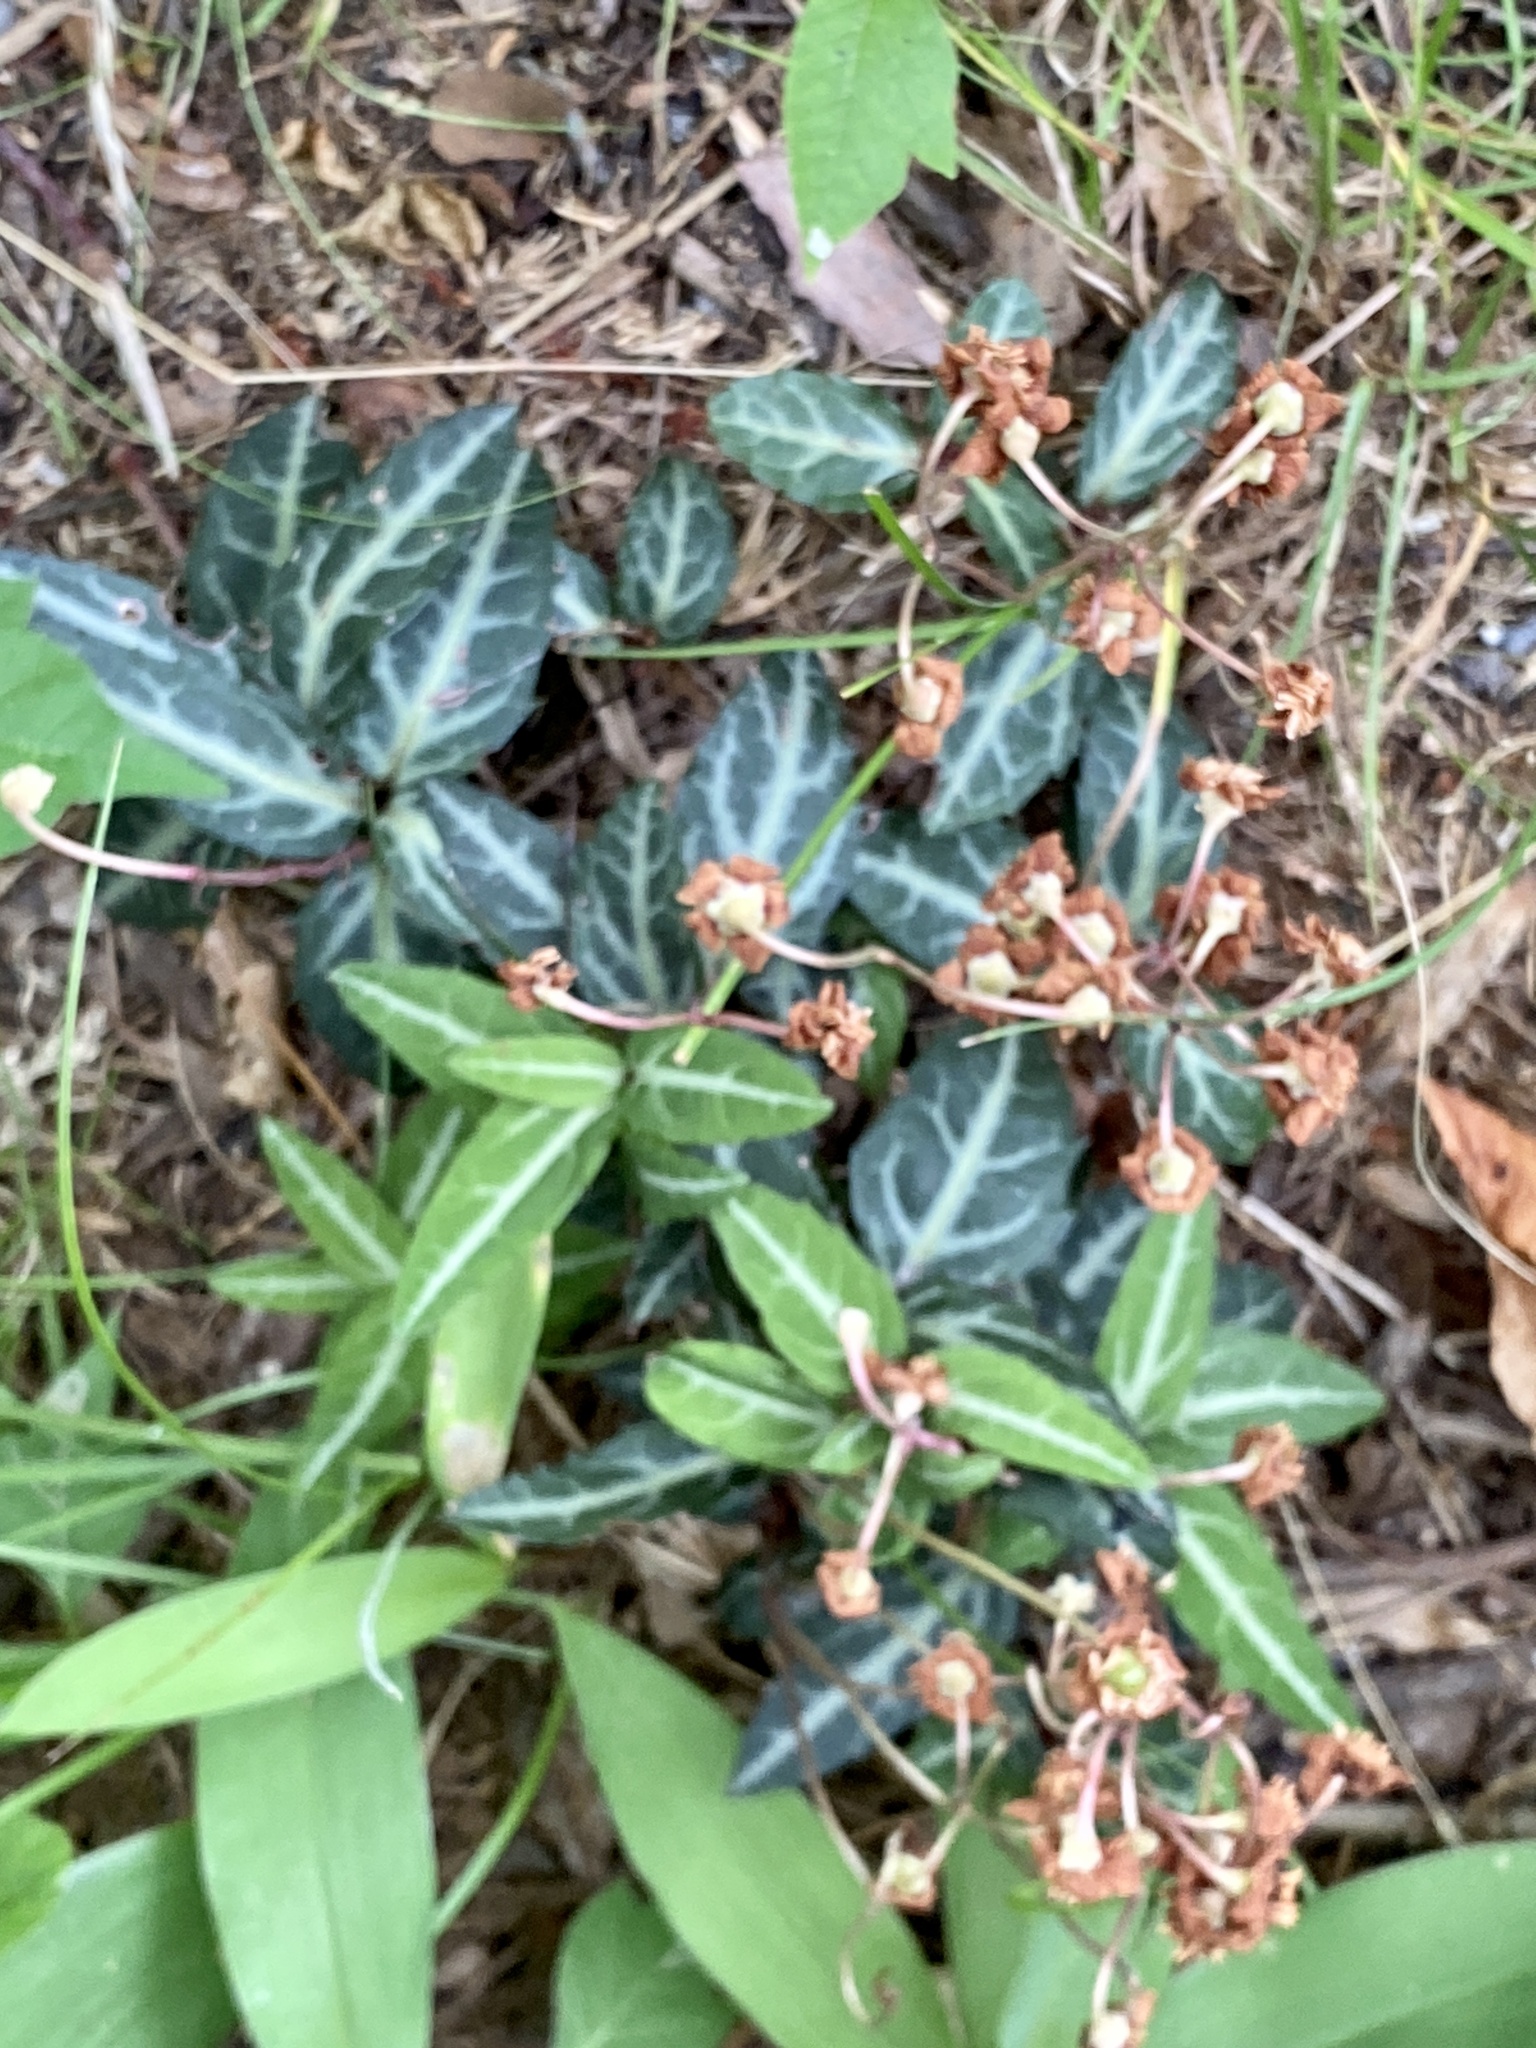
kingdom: Plantae
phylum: Tracheophyta
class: Magnoliopsida
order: Ericales
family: Ericaceae
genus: Chimaphila
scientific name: Chimaphila maculata
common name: Spotted pipsissewa
